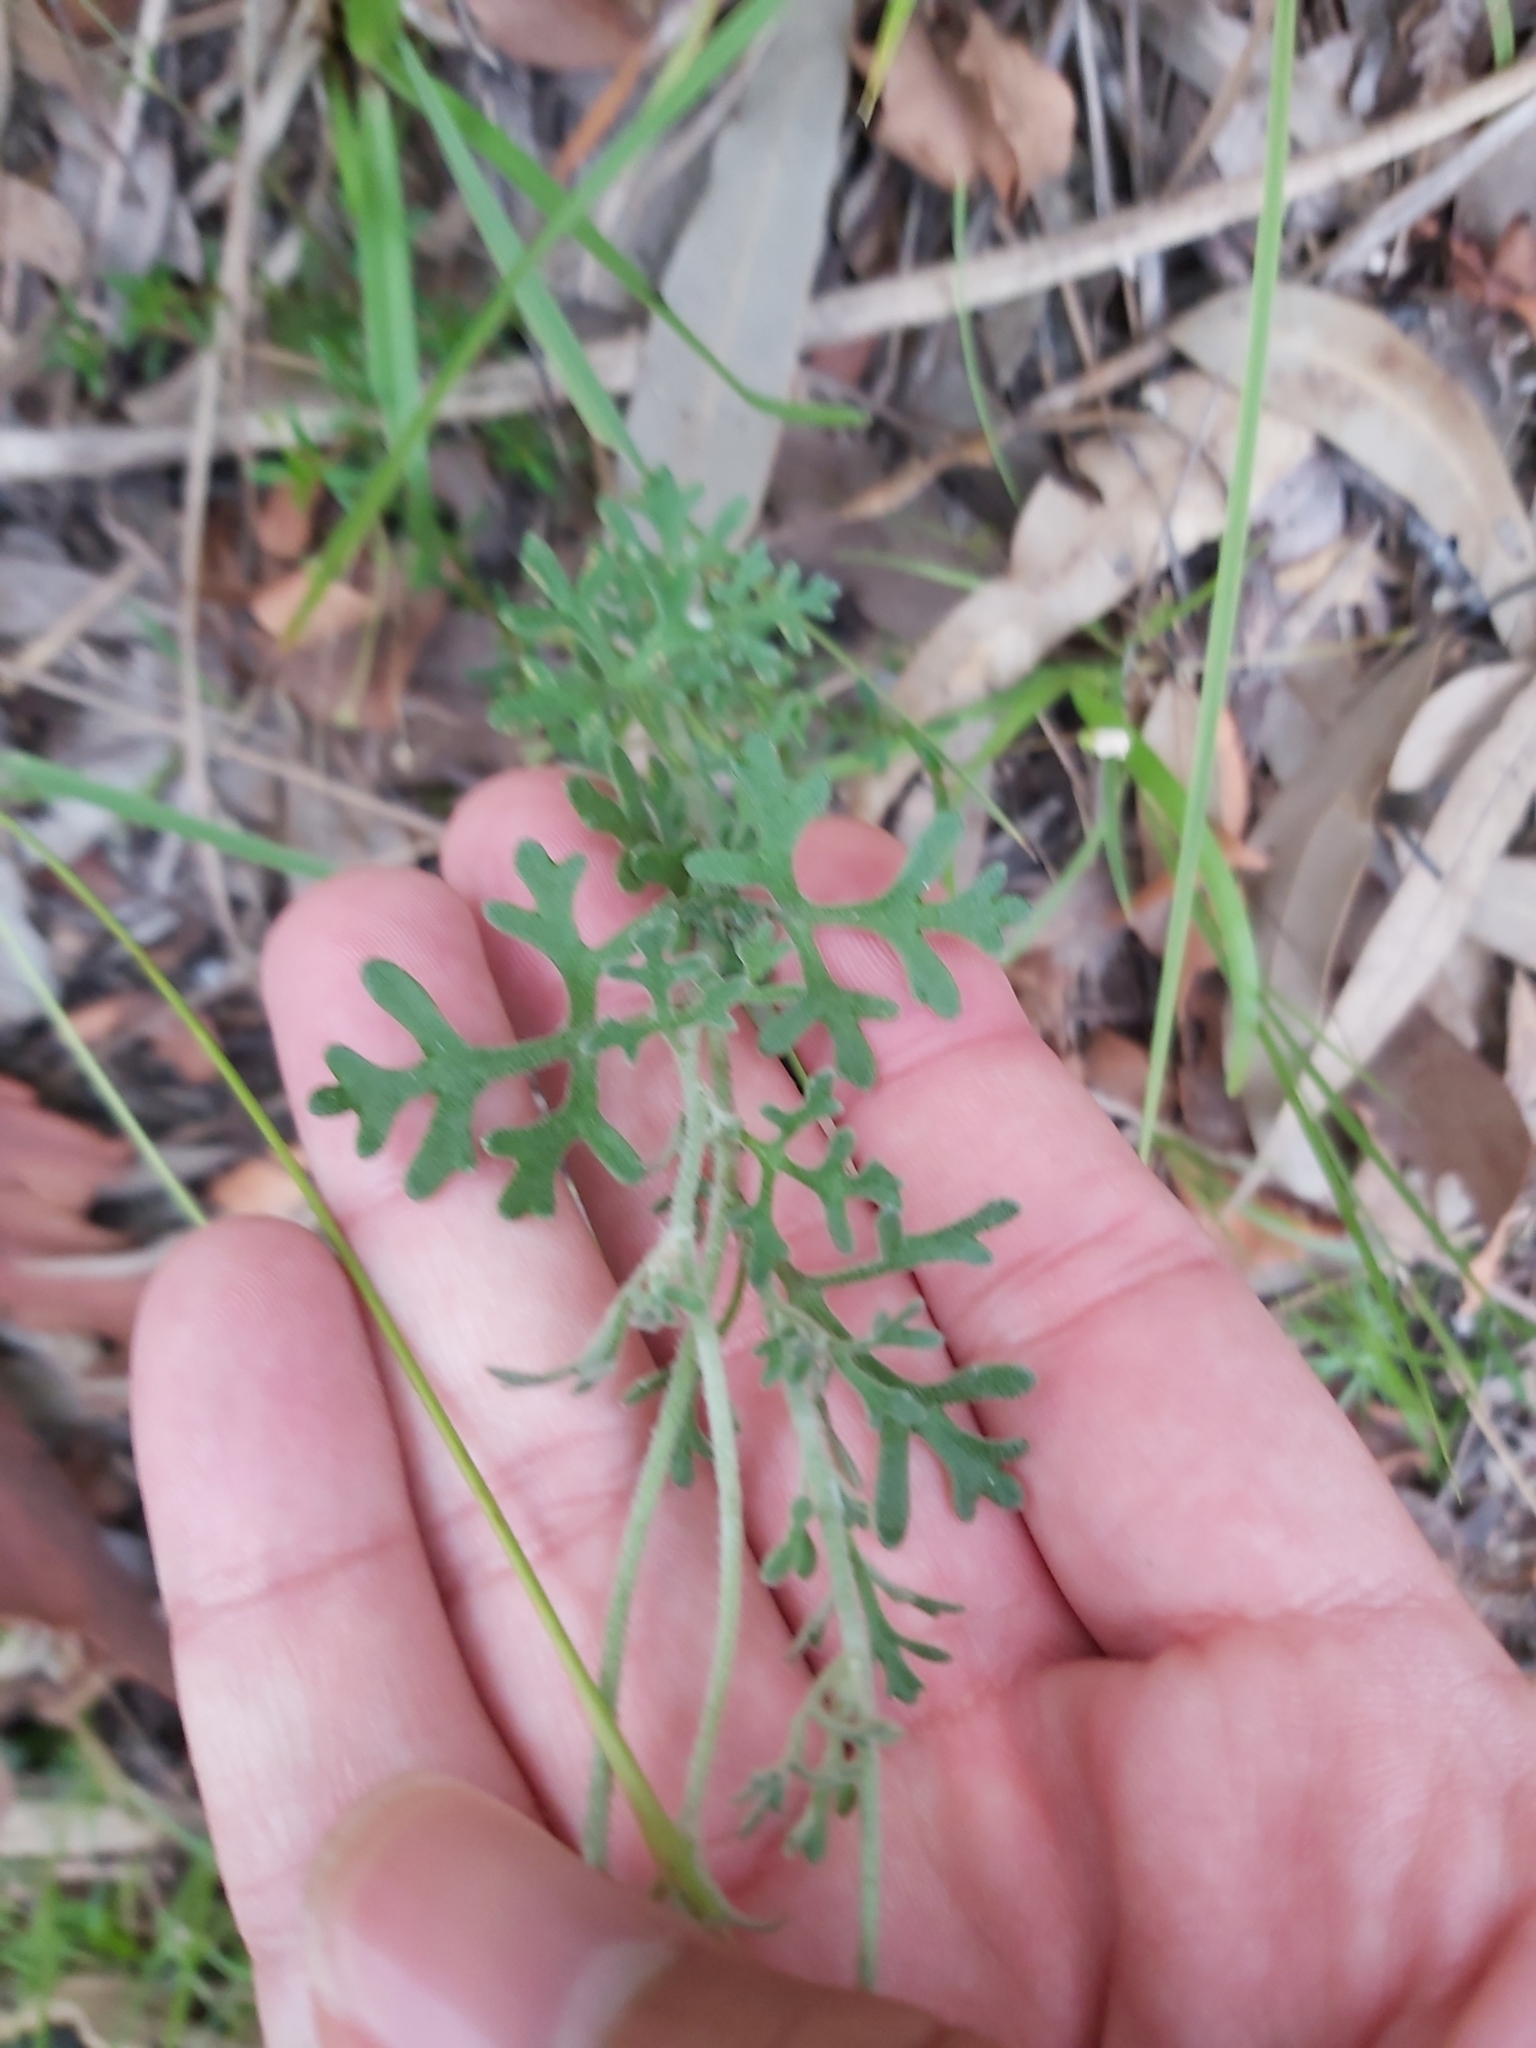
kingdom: Plantae
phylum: Tracheophyta
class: Magnoliopsida
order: Apiales
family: Apiaceae
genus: Actinotus
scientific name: Actinotus helianthi
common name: Flannel-flower
